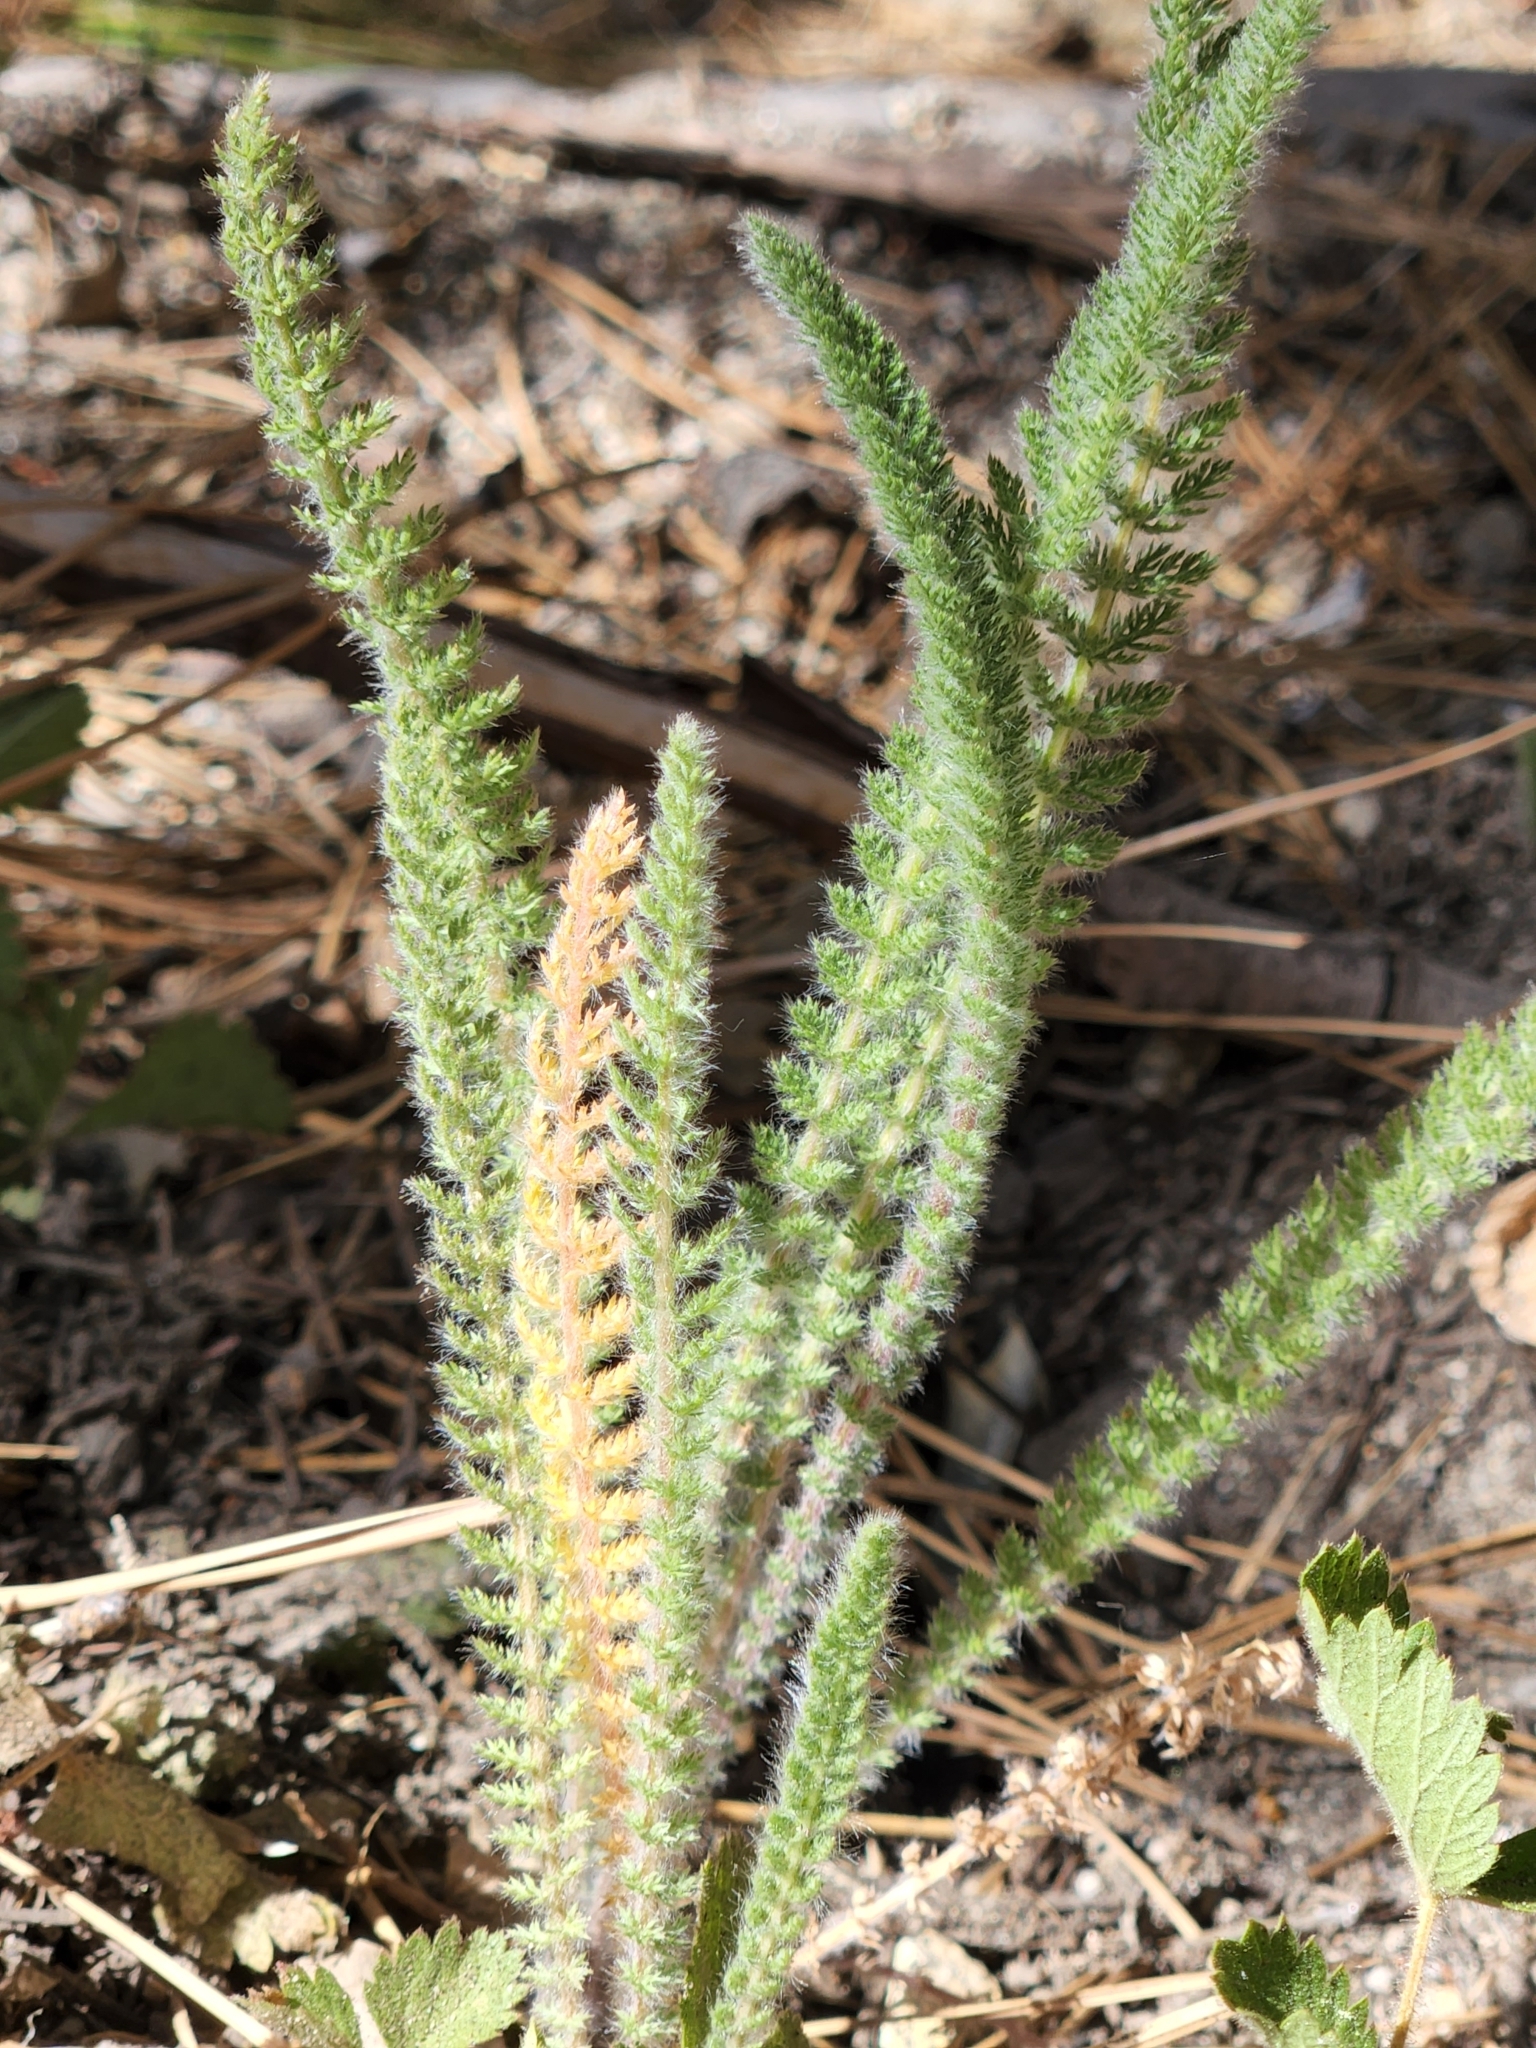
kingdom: Plantae
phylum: Tracheophyta
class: Magnoliopsida
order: Asterales
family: Asteraceae
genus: Achillea
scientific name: Achillea millefolium
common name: Yarrow
